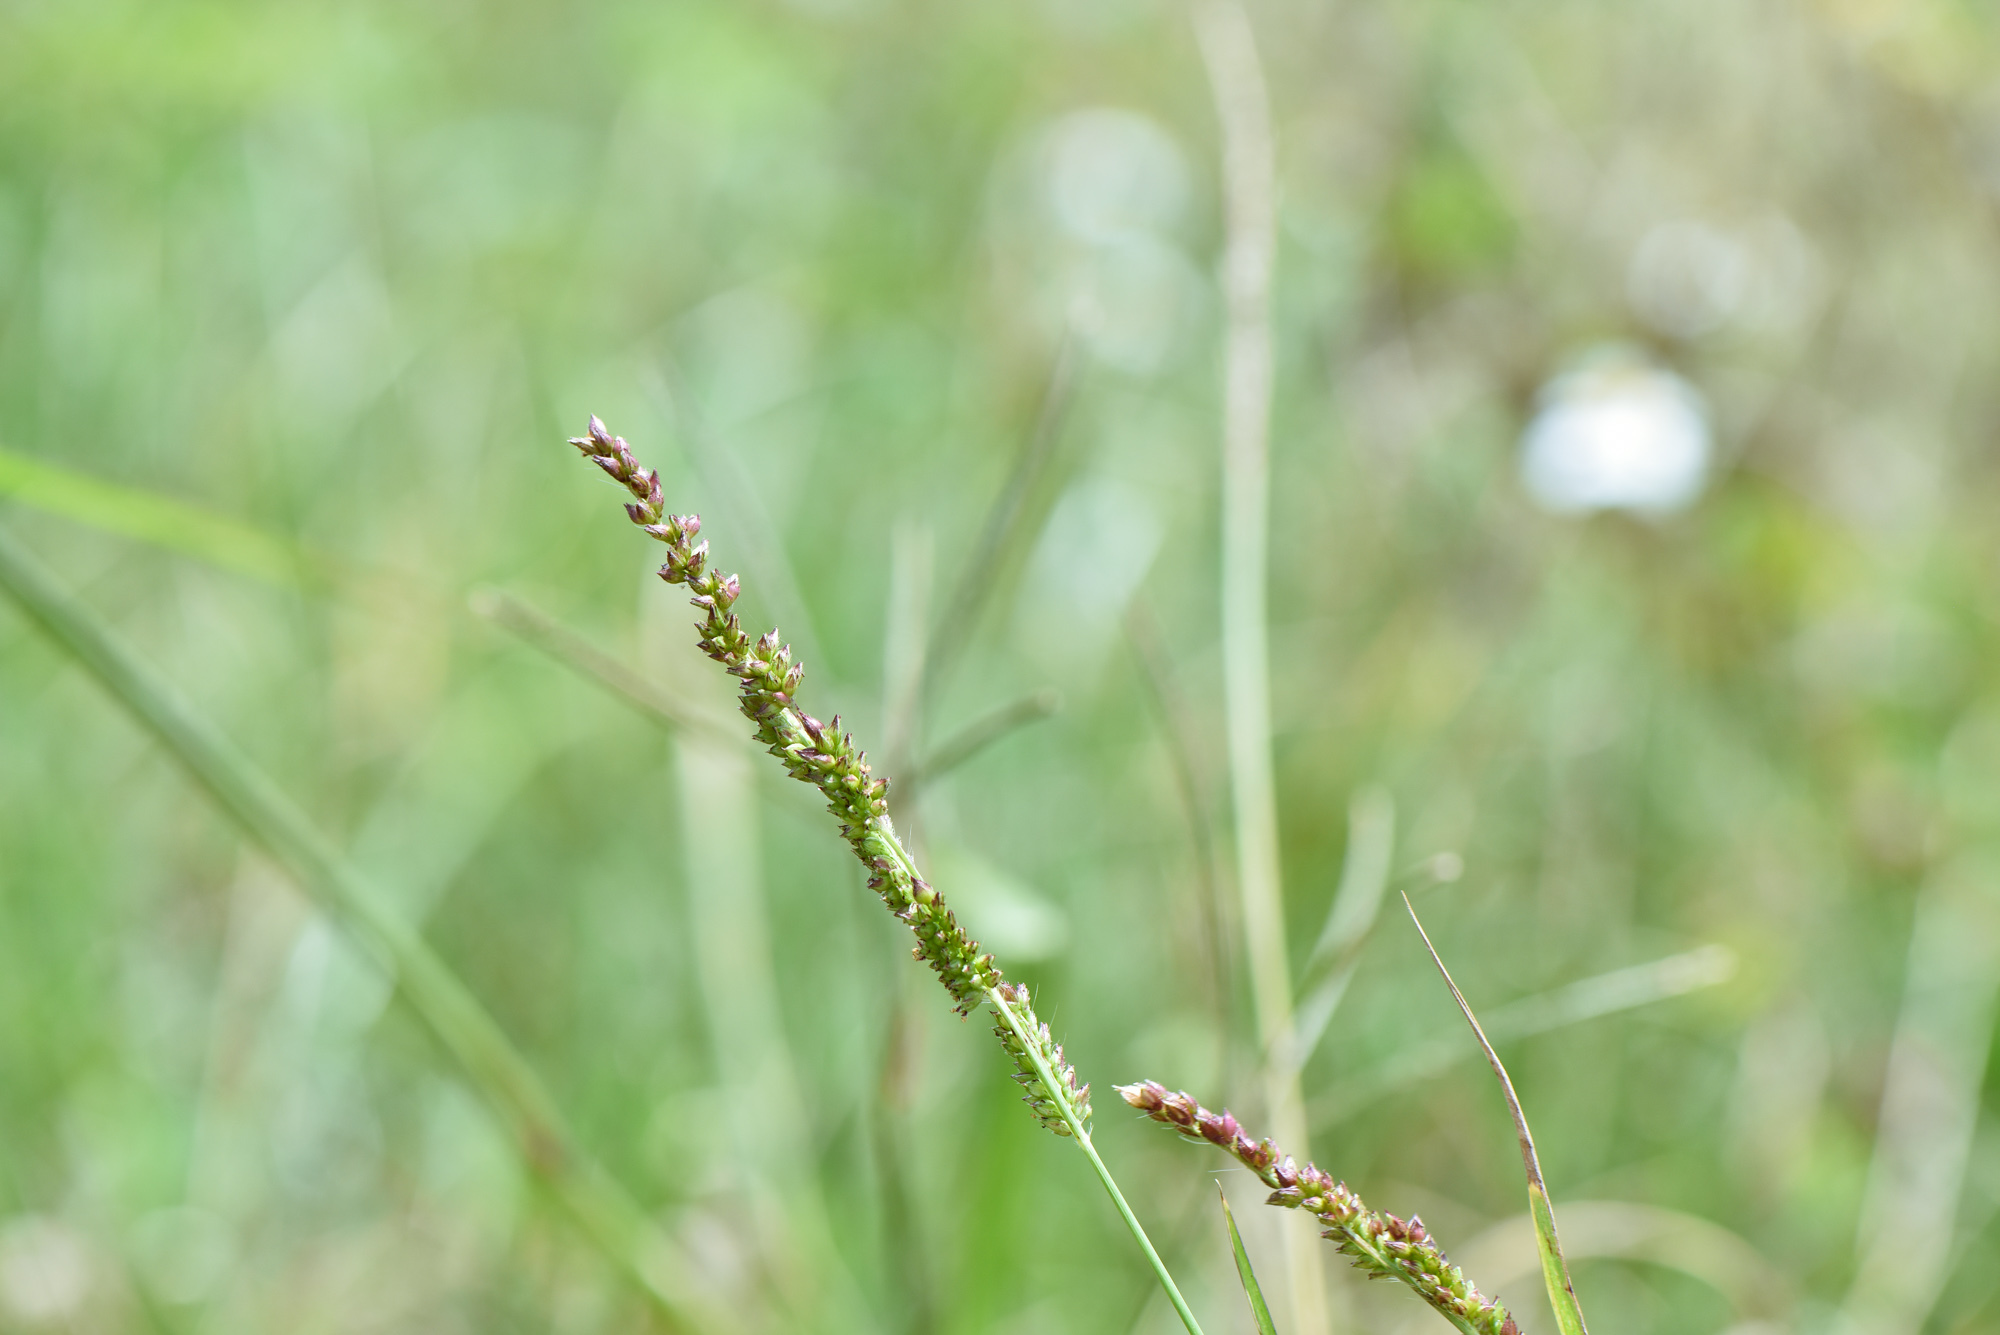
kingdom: Plantae
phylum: Tracheophyta
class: Liliopsida
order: Poales
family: Poaceae
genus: Echinochloa
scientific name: Echinochloa crus-galli
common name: Cockspur
